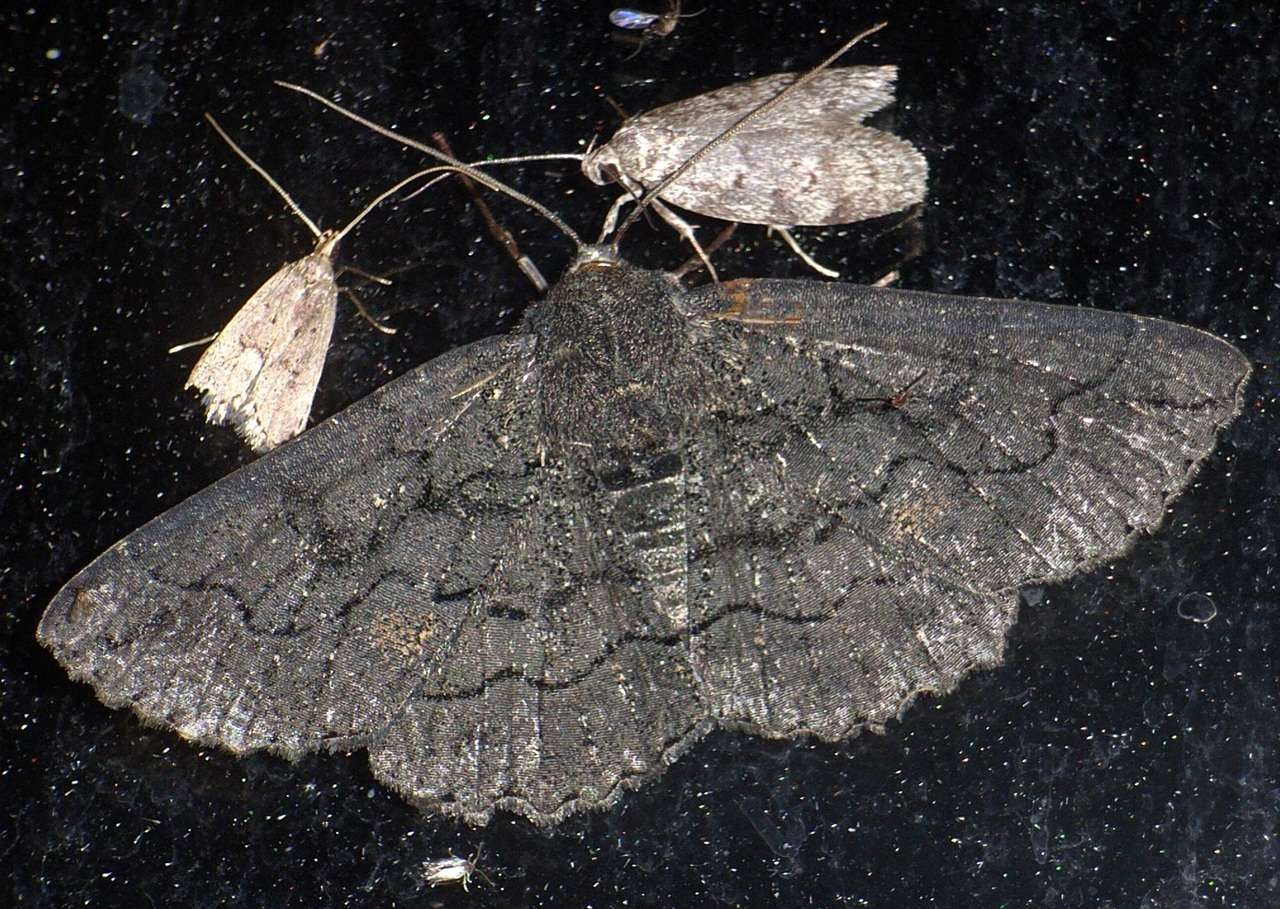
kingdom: Animalia
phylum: Arthropoda
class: Insecta
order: Lepidoptera
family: Geometridae
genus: Melanodes
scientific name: Melanodes anthracitaria
